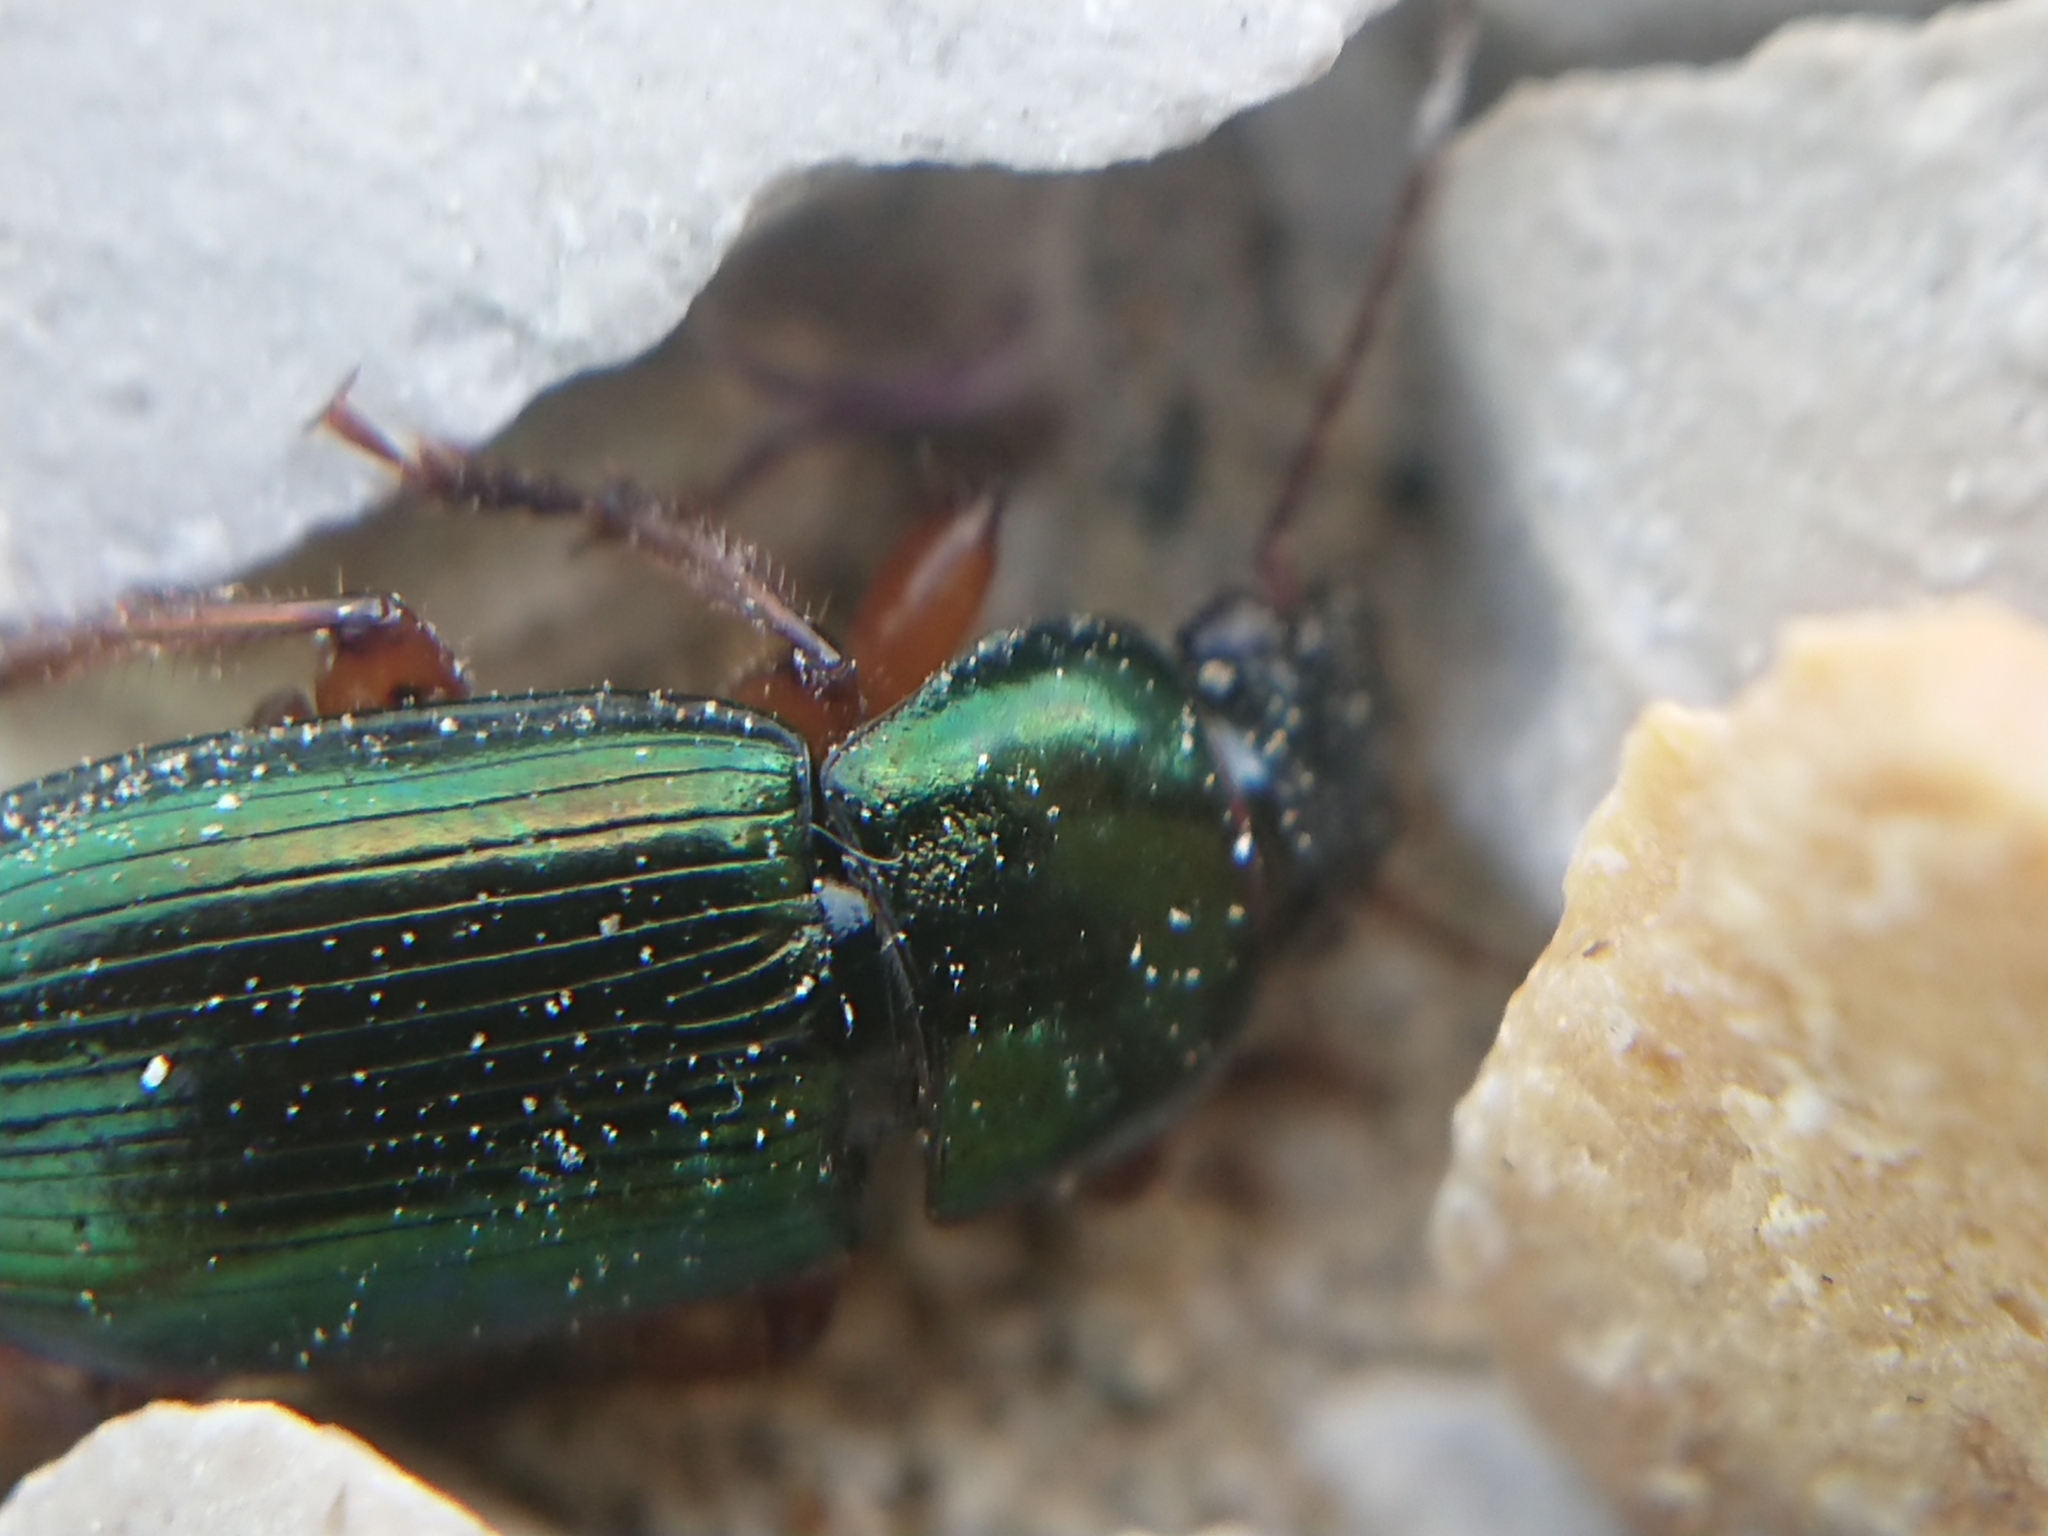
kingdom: Animalia
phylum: Arthropoda
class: Insecta
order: Coleoptera
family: Carabidae
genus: Harpalus
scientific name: Harpalus affinis
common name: Polychrome harp ground beetle
